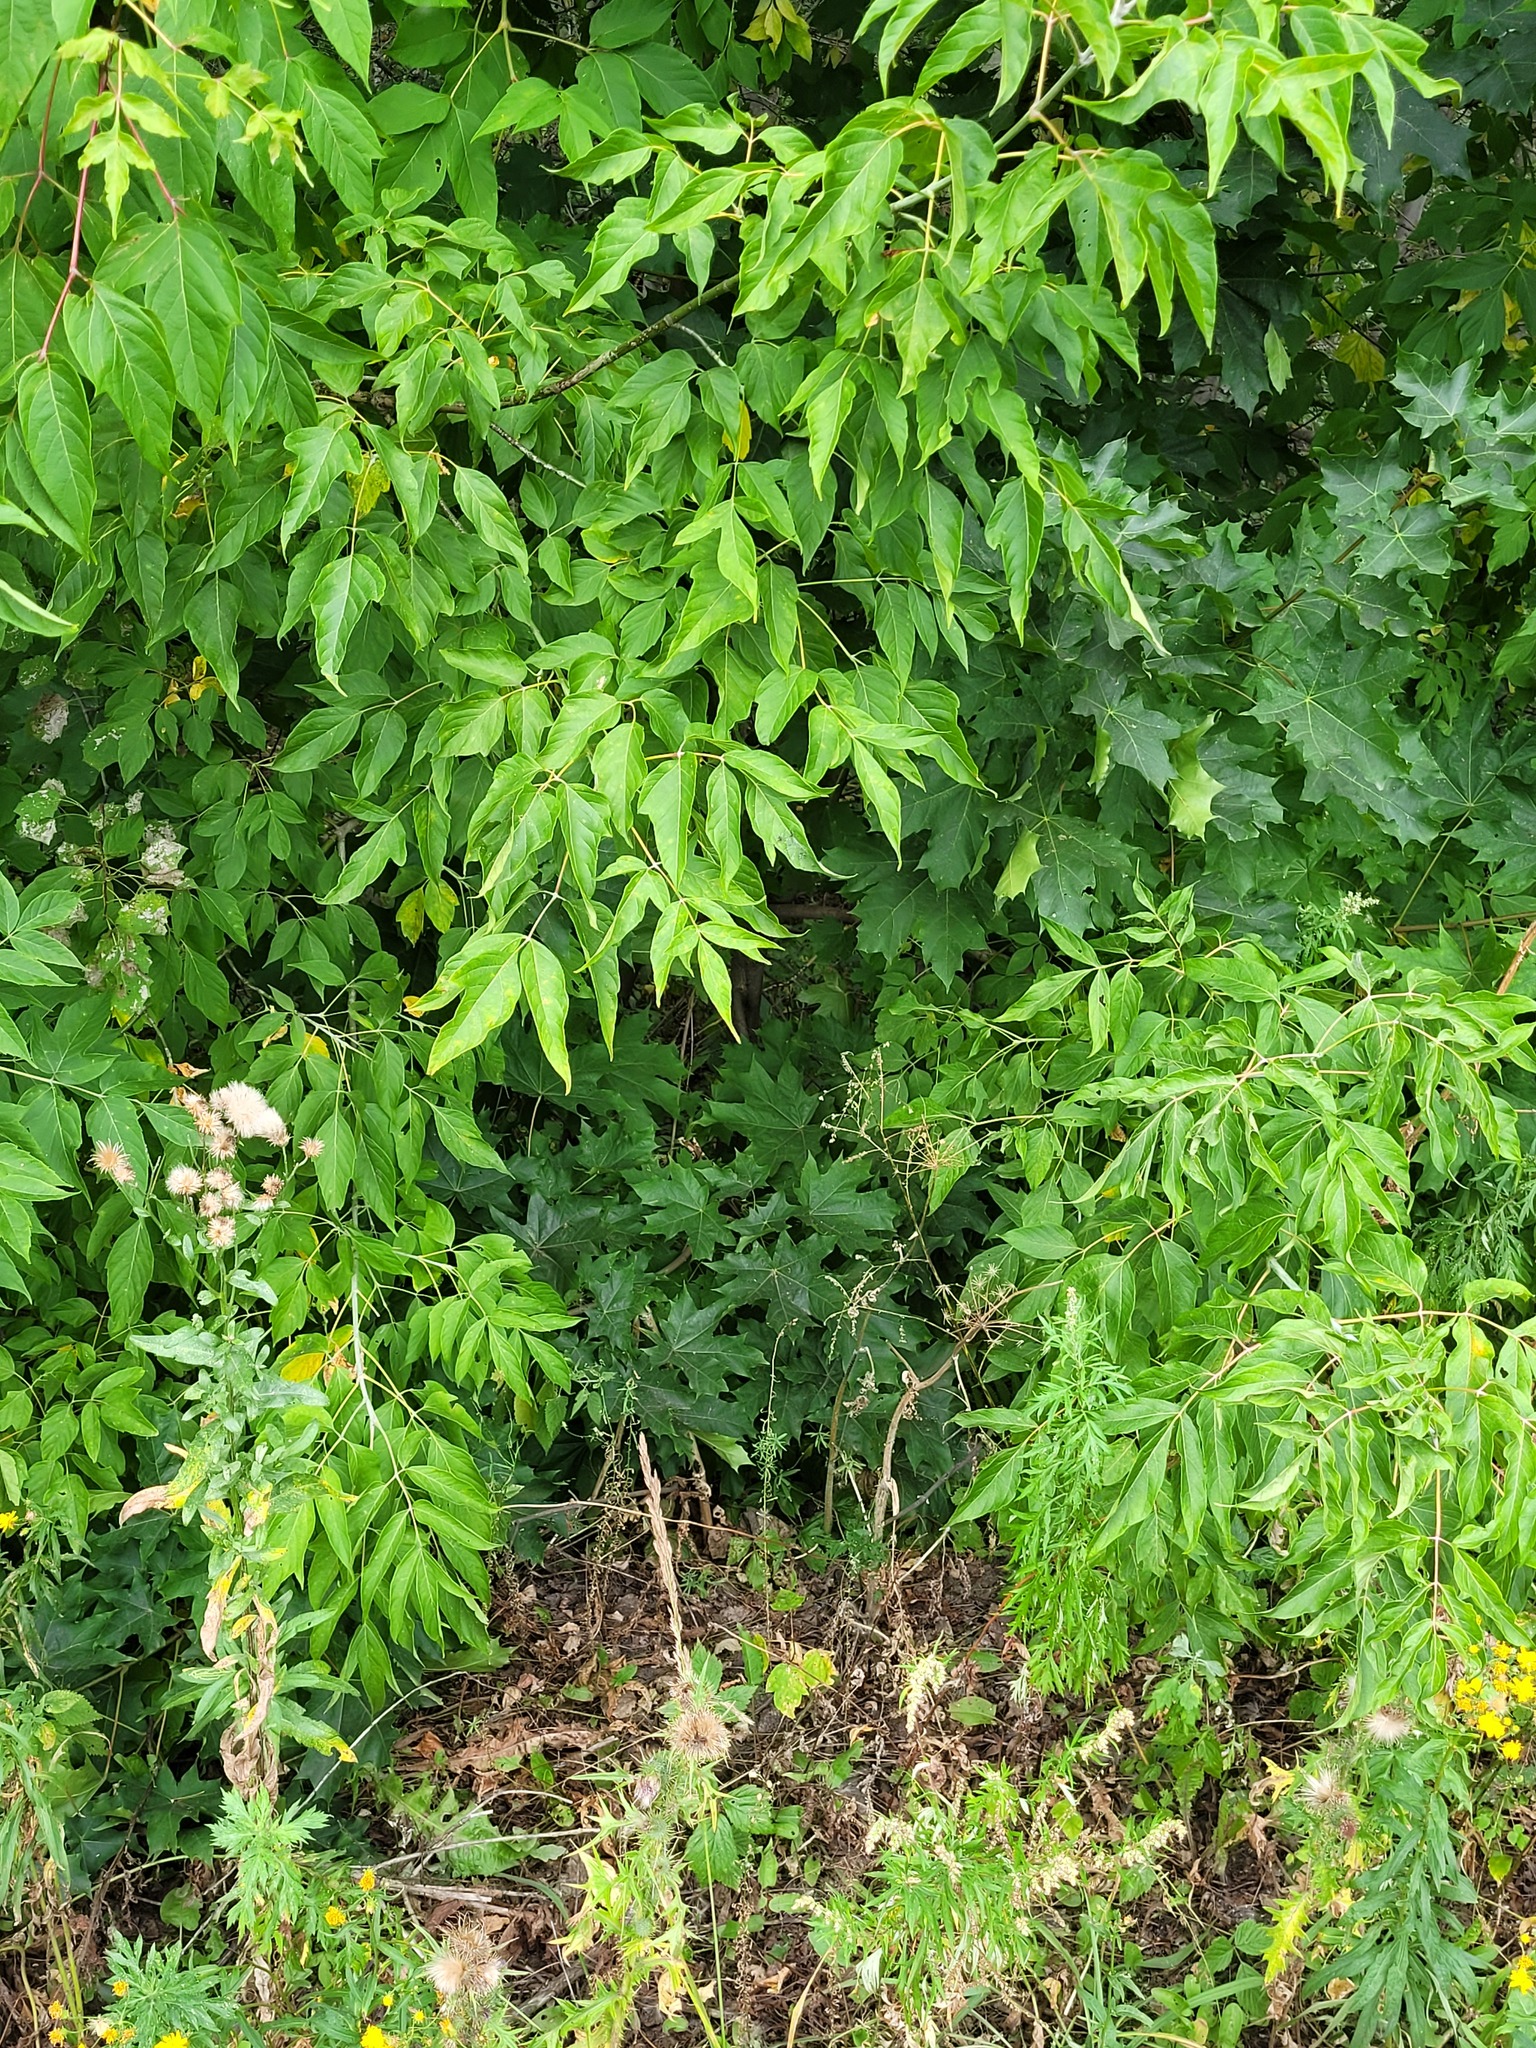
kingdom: Plantae
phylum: Tracheophyta
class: Magnoliopsida
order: Sapindales
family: Sapindaceae
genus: Acer
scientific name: Acer platanoides
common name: Norway maple
